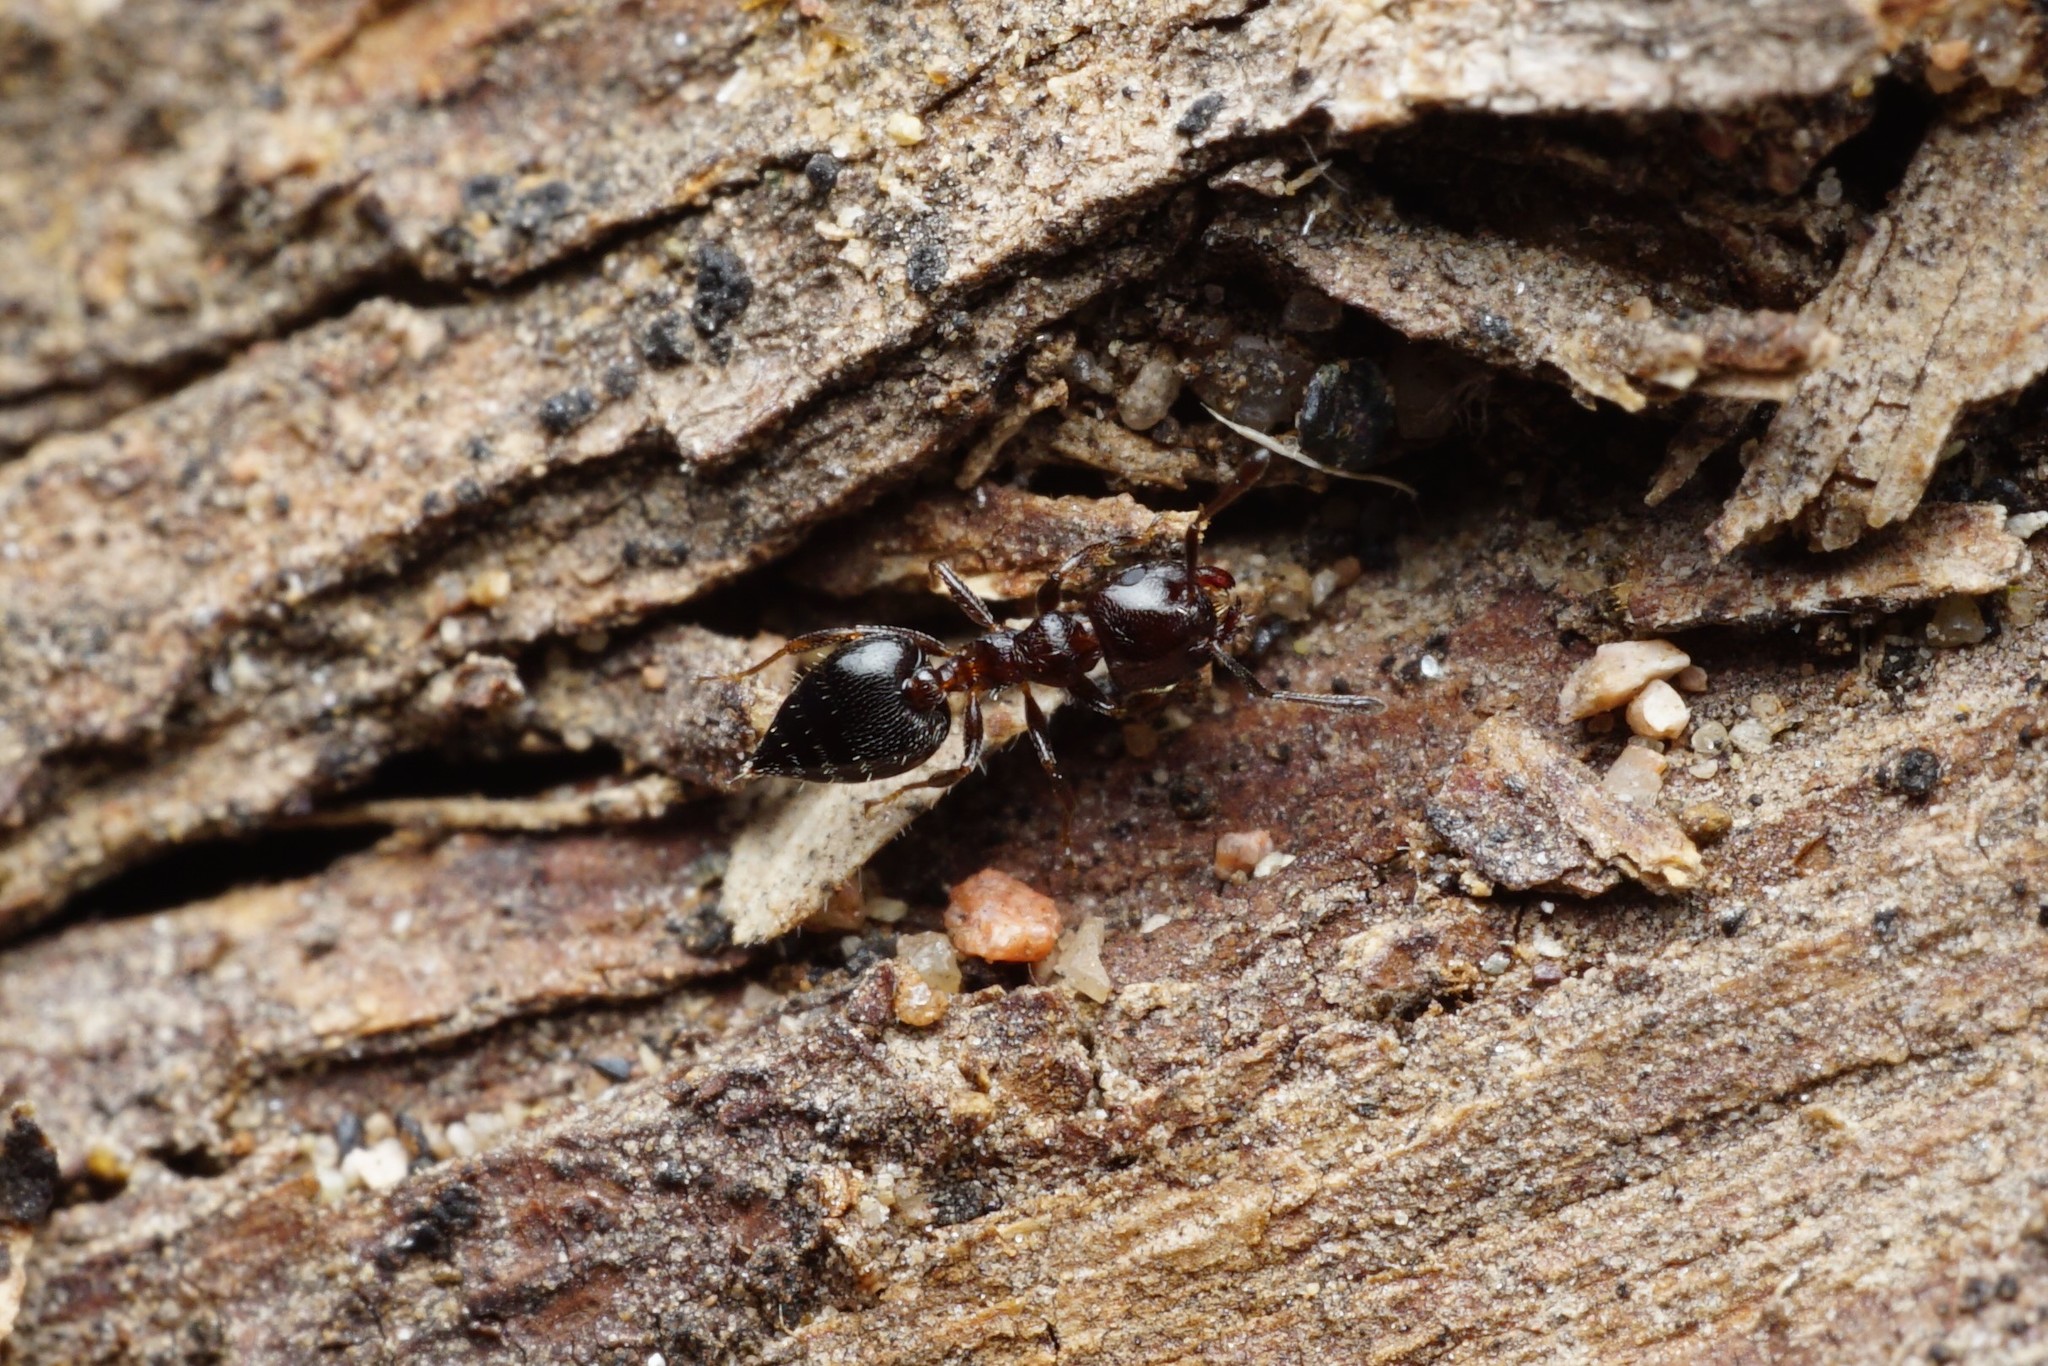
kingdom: Animalia
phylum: Arthropoda
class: Insecta
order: Hymenoptera
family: Formicidae
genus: Crematogaster
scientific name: Crematogaster torosa
